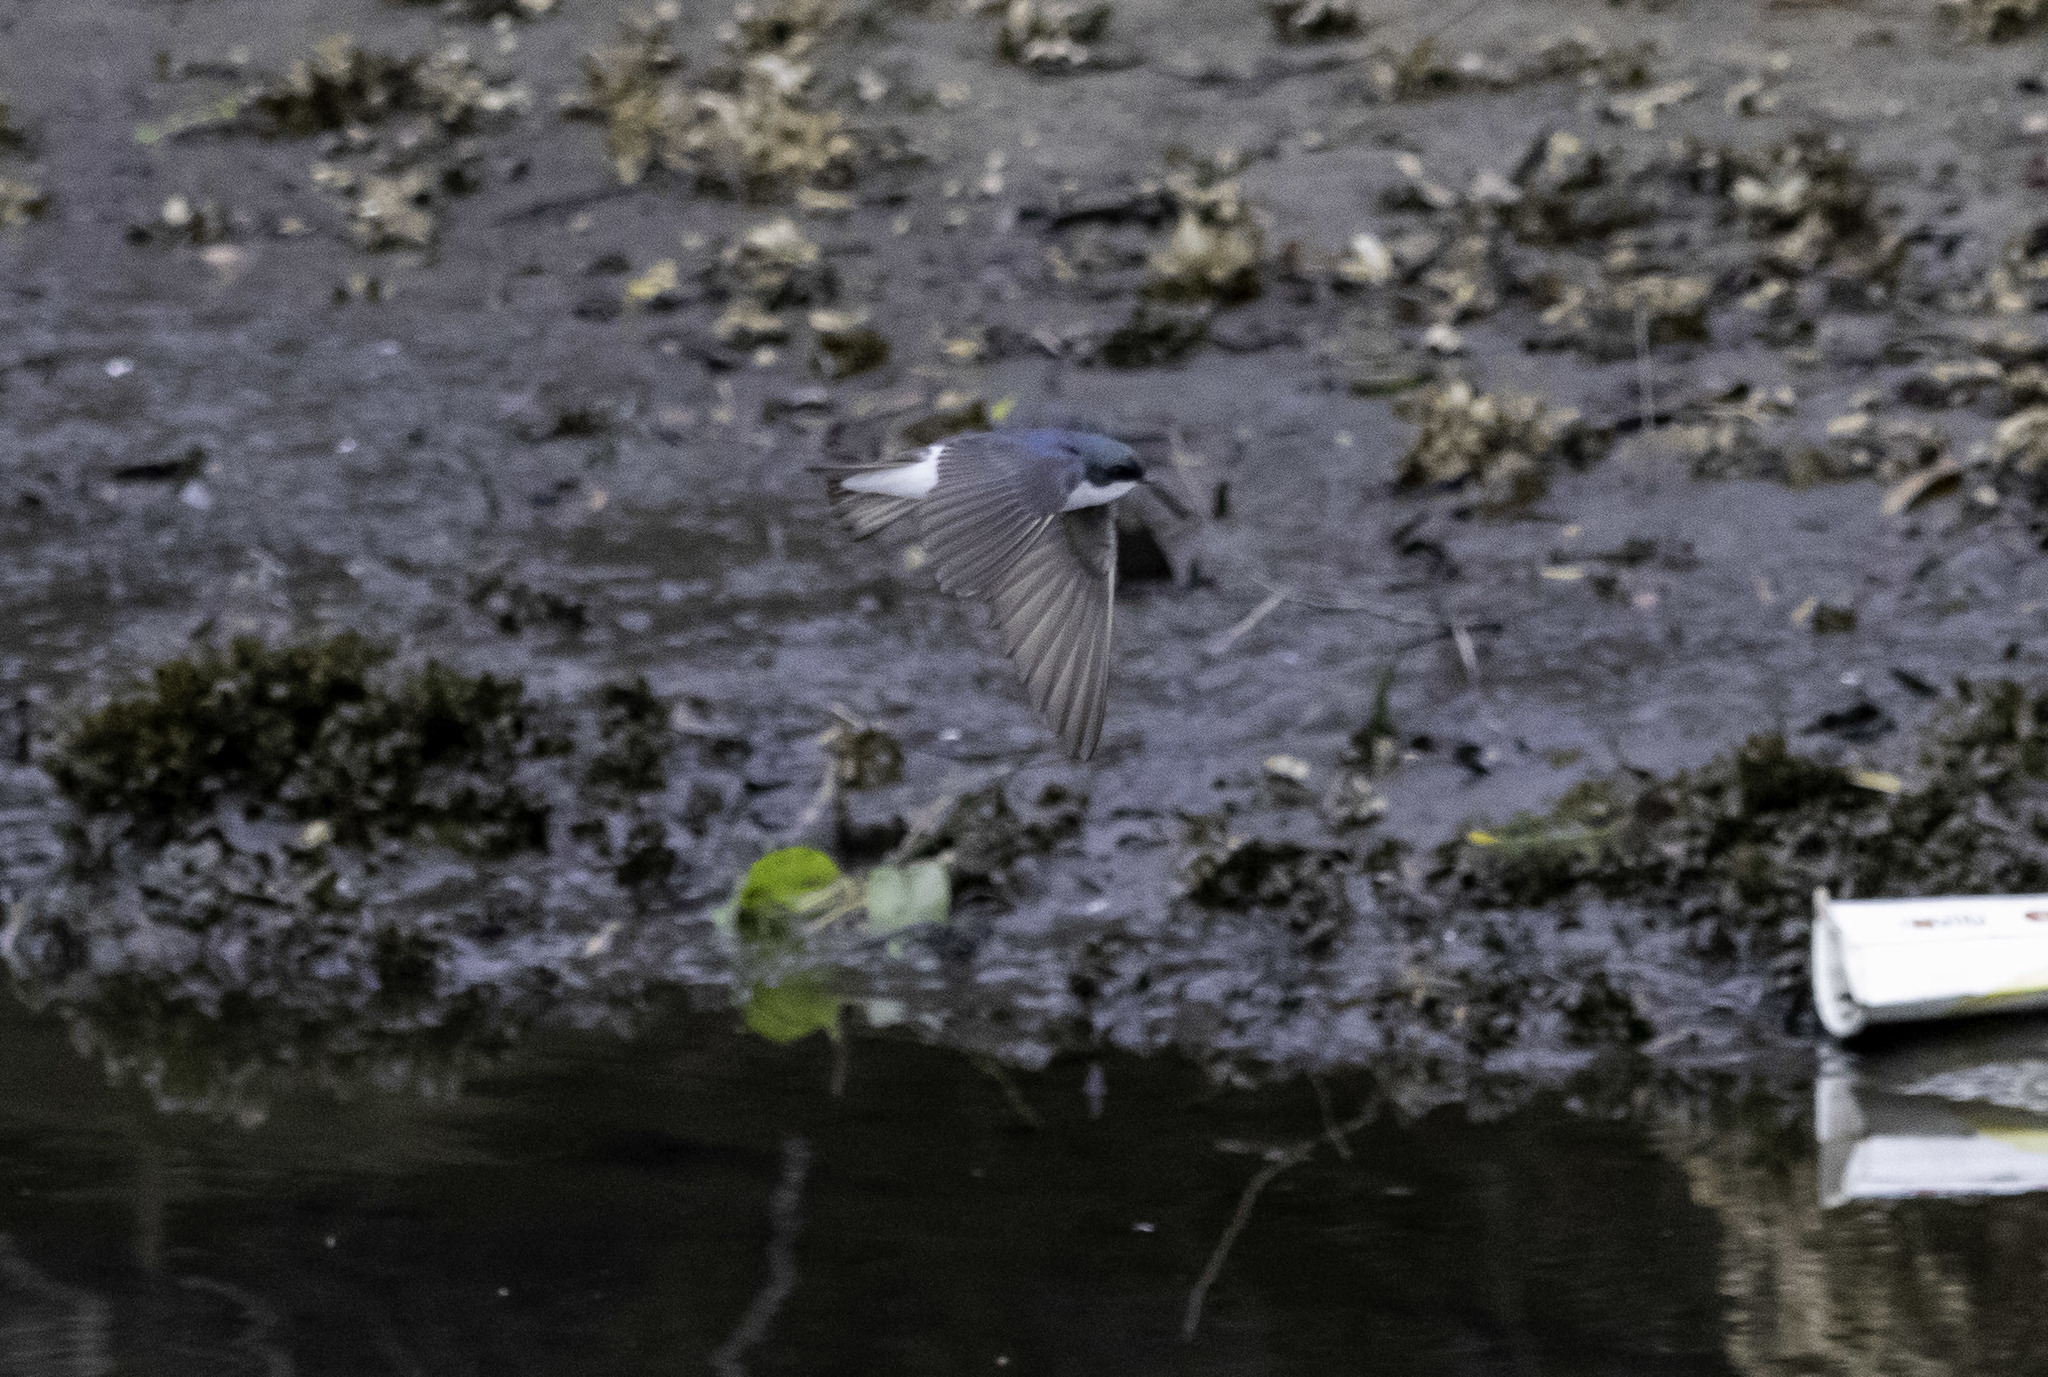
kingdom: Animalia
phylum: Chordata
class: Aves
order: Passeriformes
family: Hirundinidae
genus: Tachycineta
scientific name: Tachycineta bicolor
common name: Tree swallow
